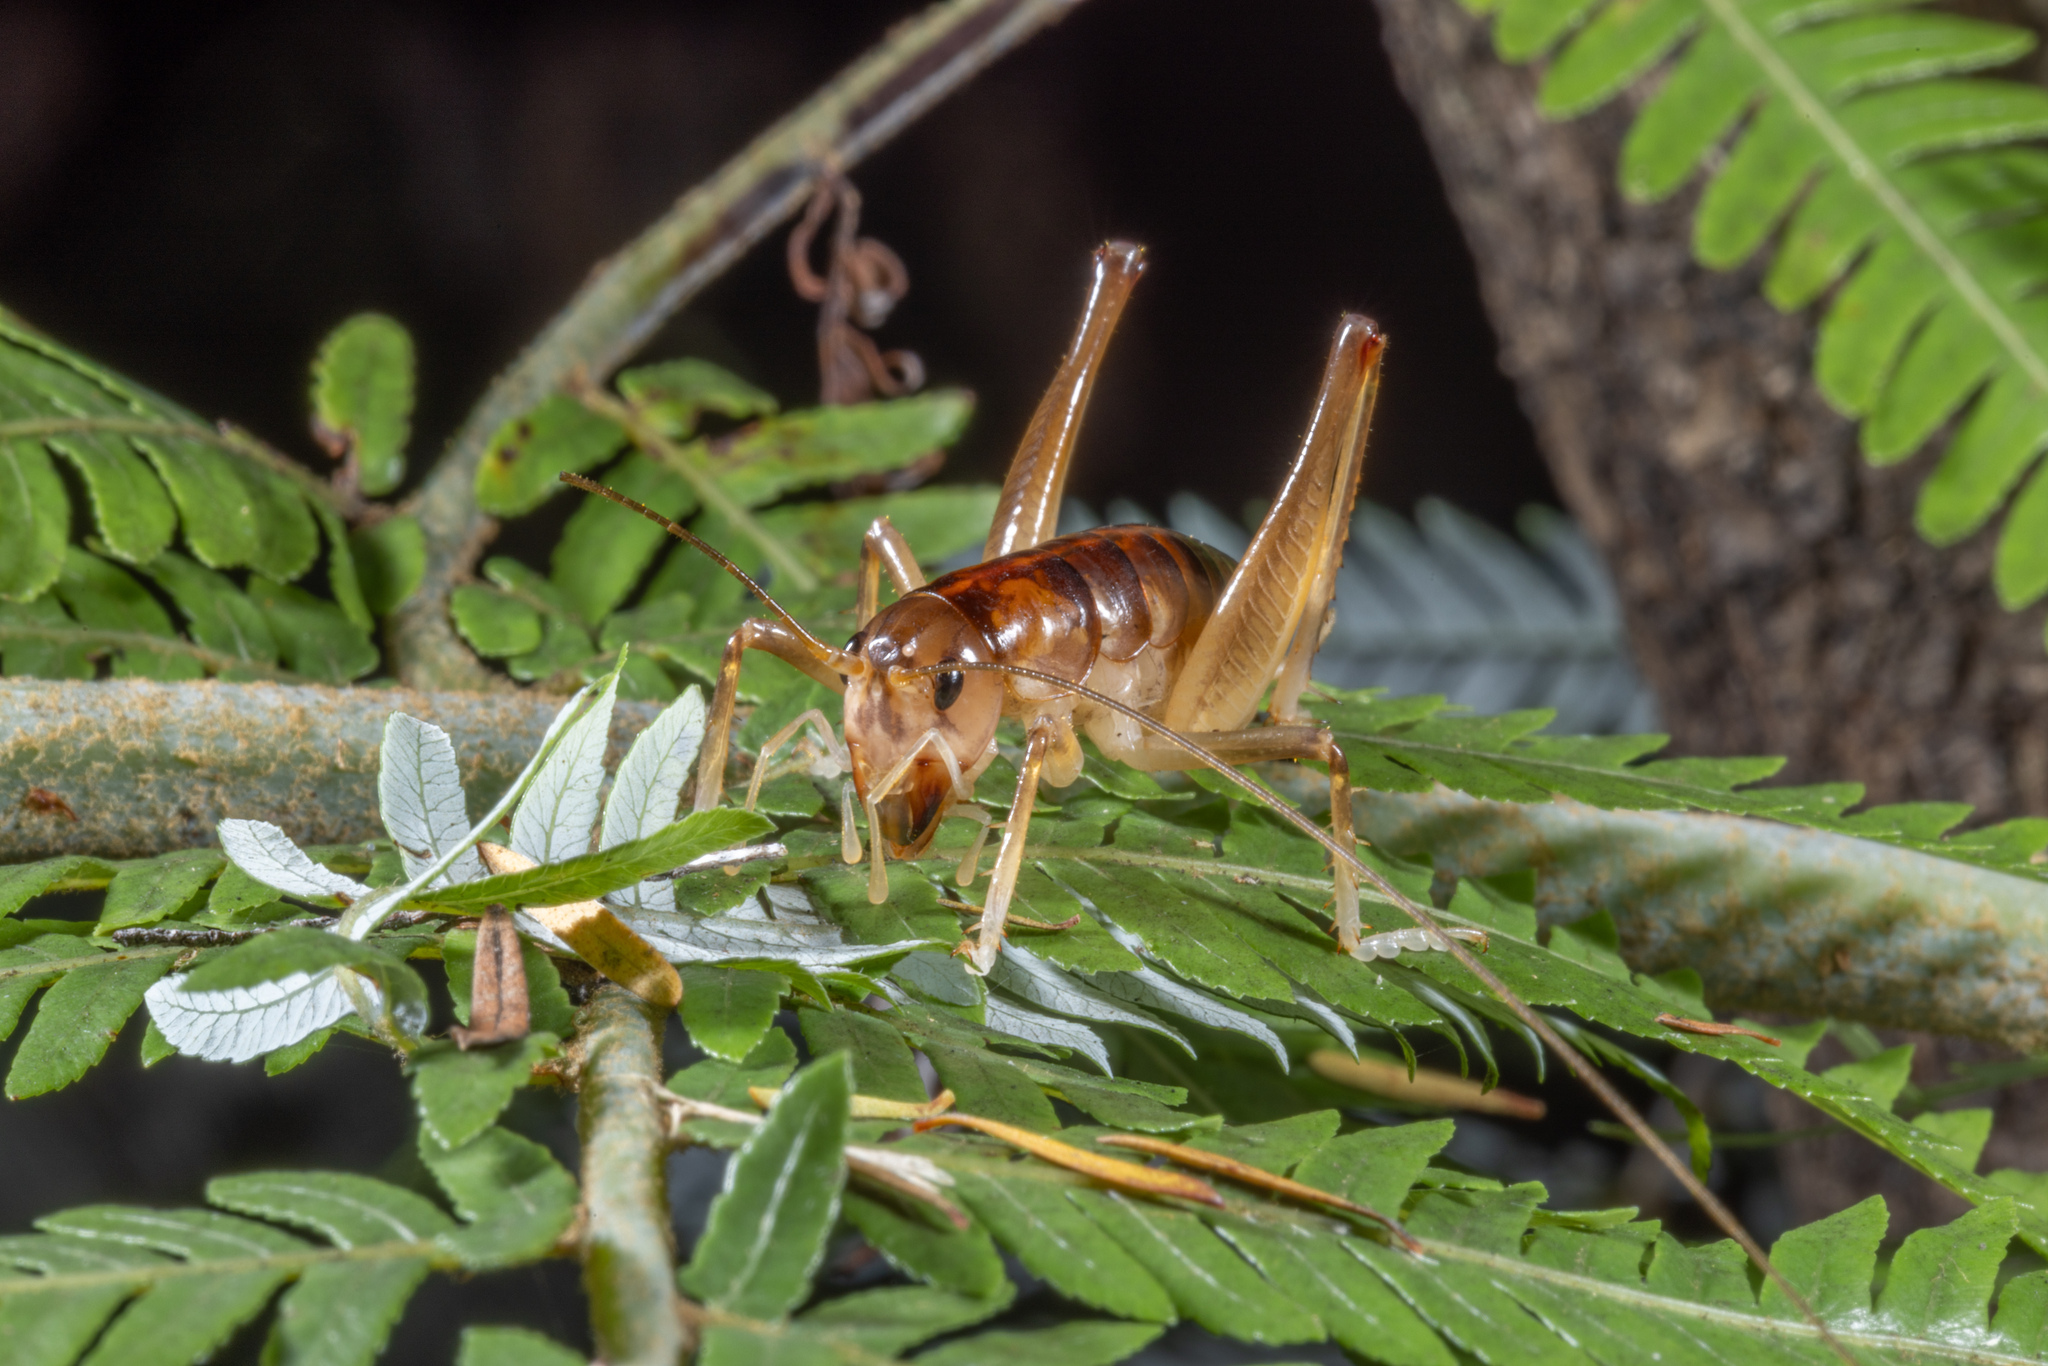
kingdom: Animalia
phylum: Arthropoda
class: Insecta
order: Orthoptera
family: Anostostomatidae
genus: Hemiandrus
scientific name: Hemiandrus pallitarsis
